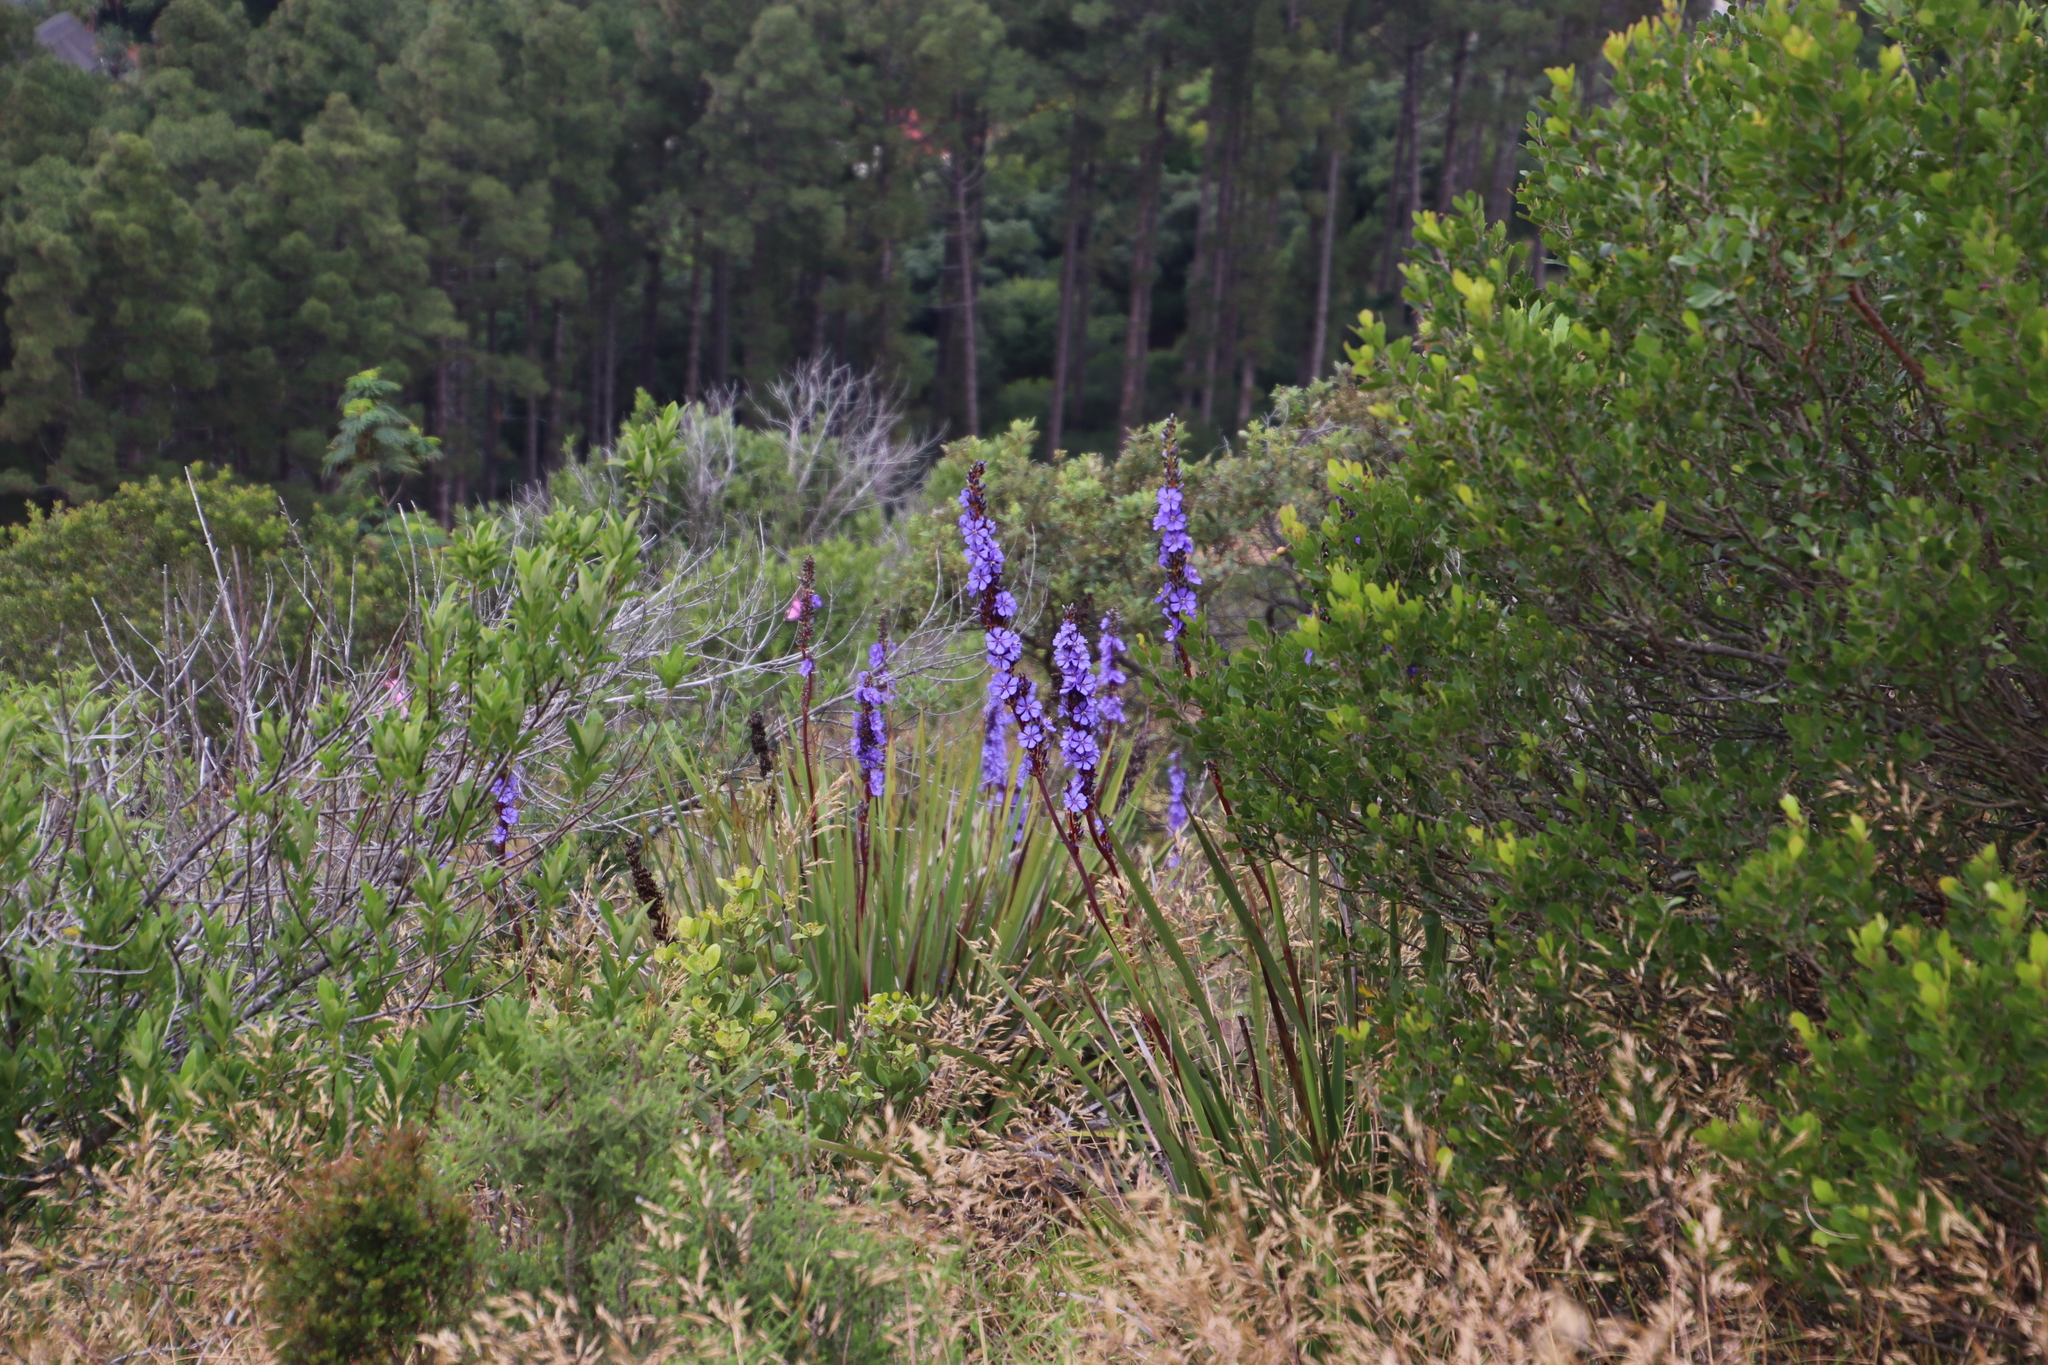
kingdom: Plantae
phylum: Tracheophyta
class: Liliopsida
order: Asparagales
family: Iridaceae
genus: Aristea
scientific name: Aristea capitata
